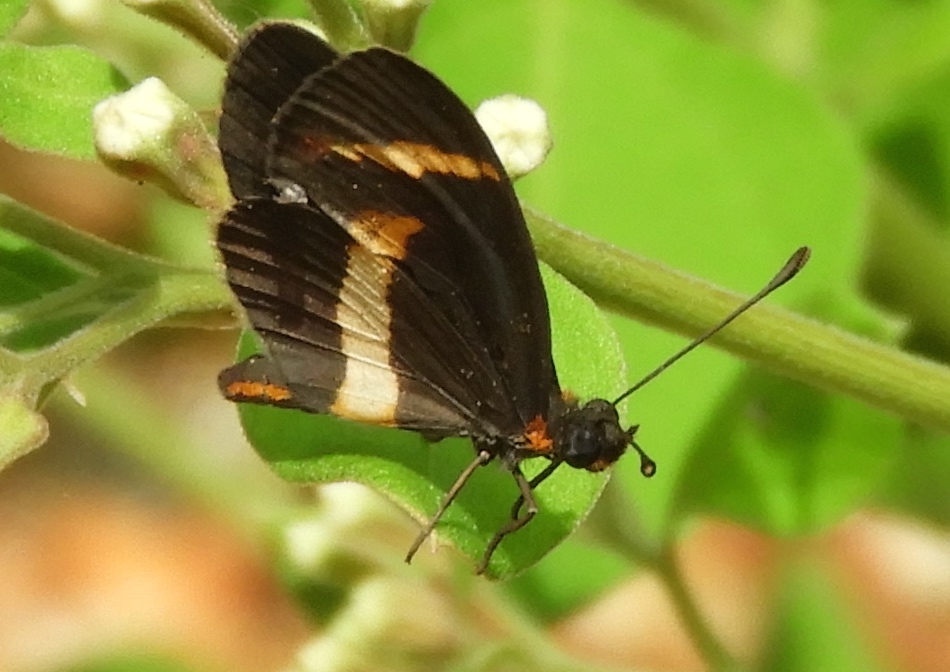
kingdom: Animalia
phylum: Arthropoda
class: Insecta
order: Lepidoptera
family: Nymphalidae
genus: Microtia
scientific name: Microtia elva
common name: Elf
